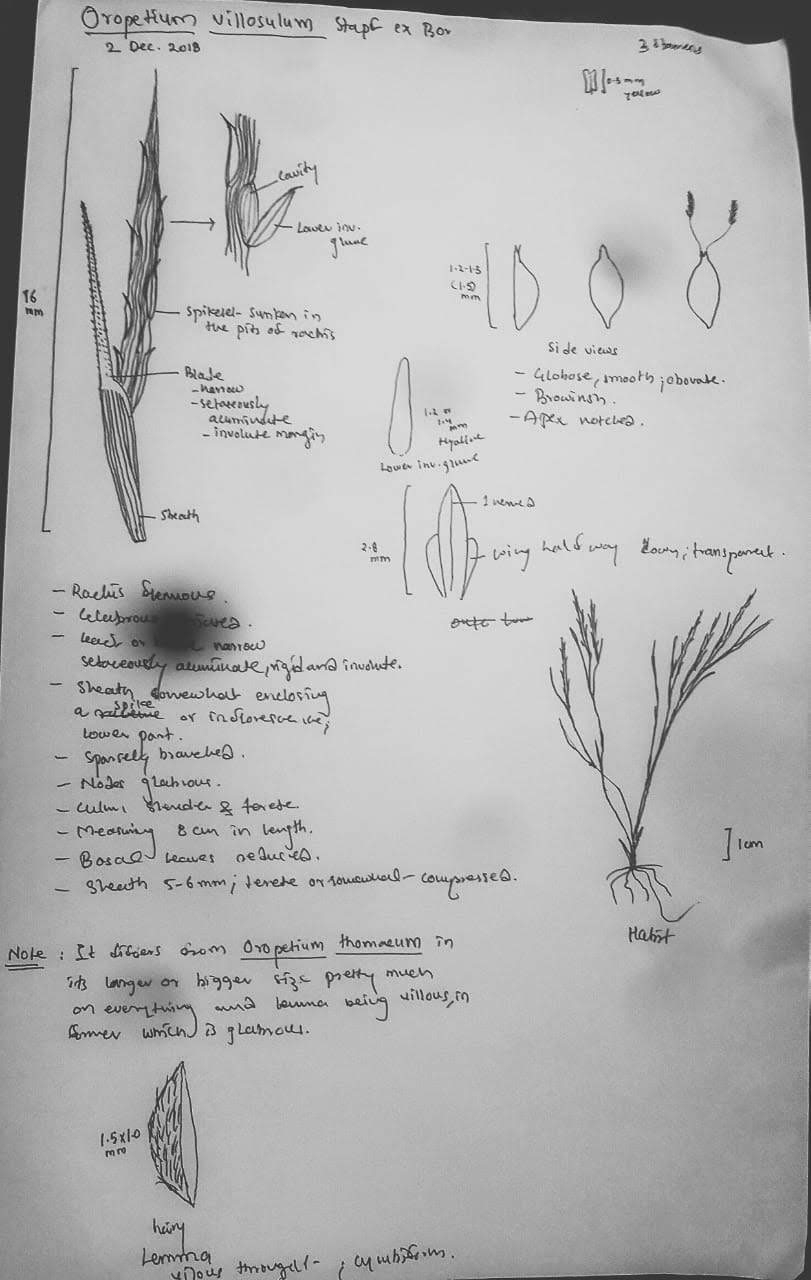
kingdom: Plantae
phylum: Tracheophyta
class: Liliopsida
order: Poales
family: Poaceae
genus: Oropetium
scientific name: Oropetium villosulum
